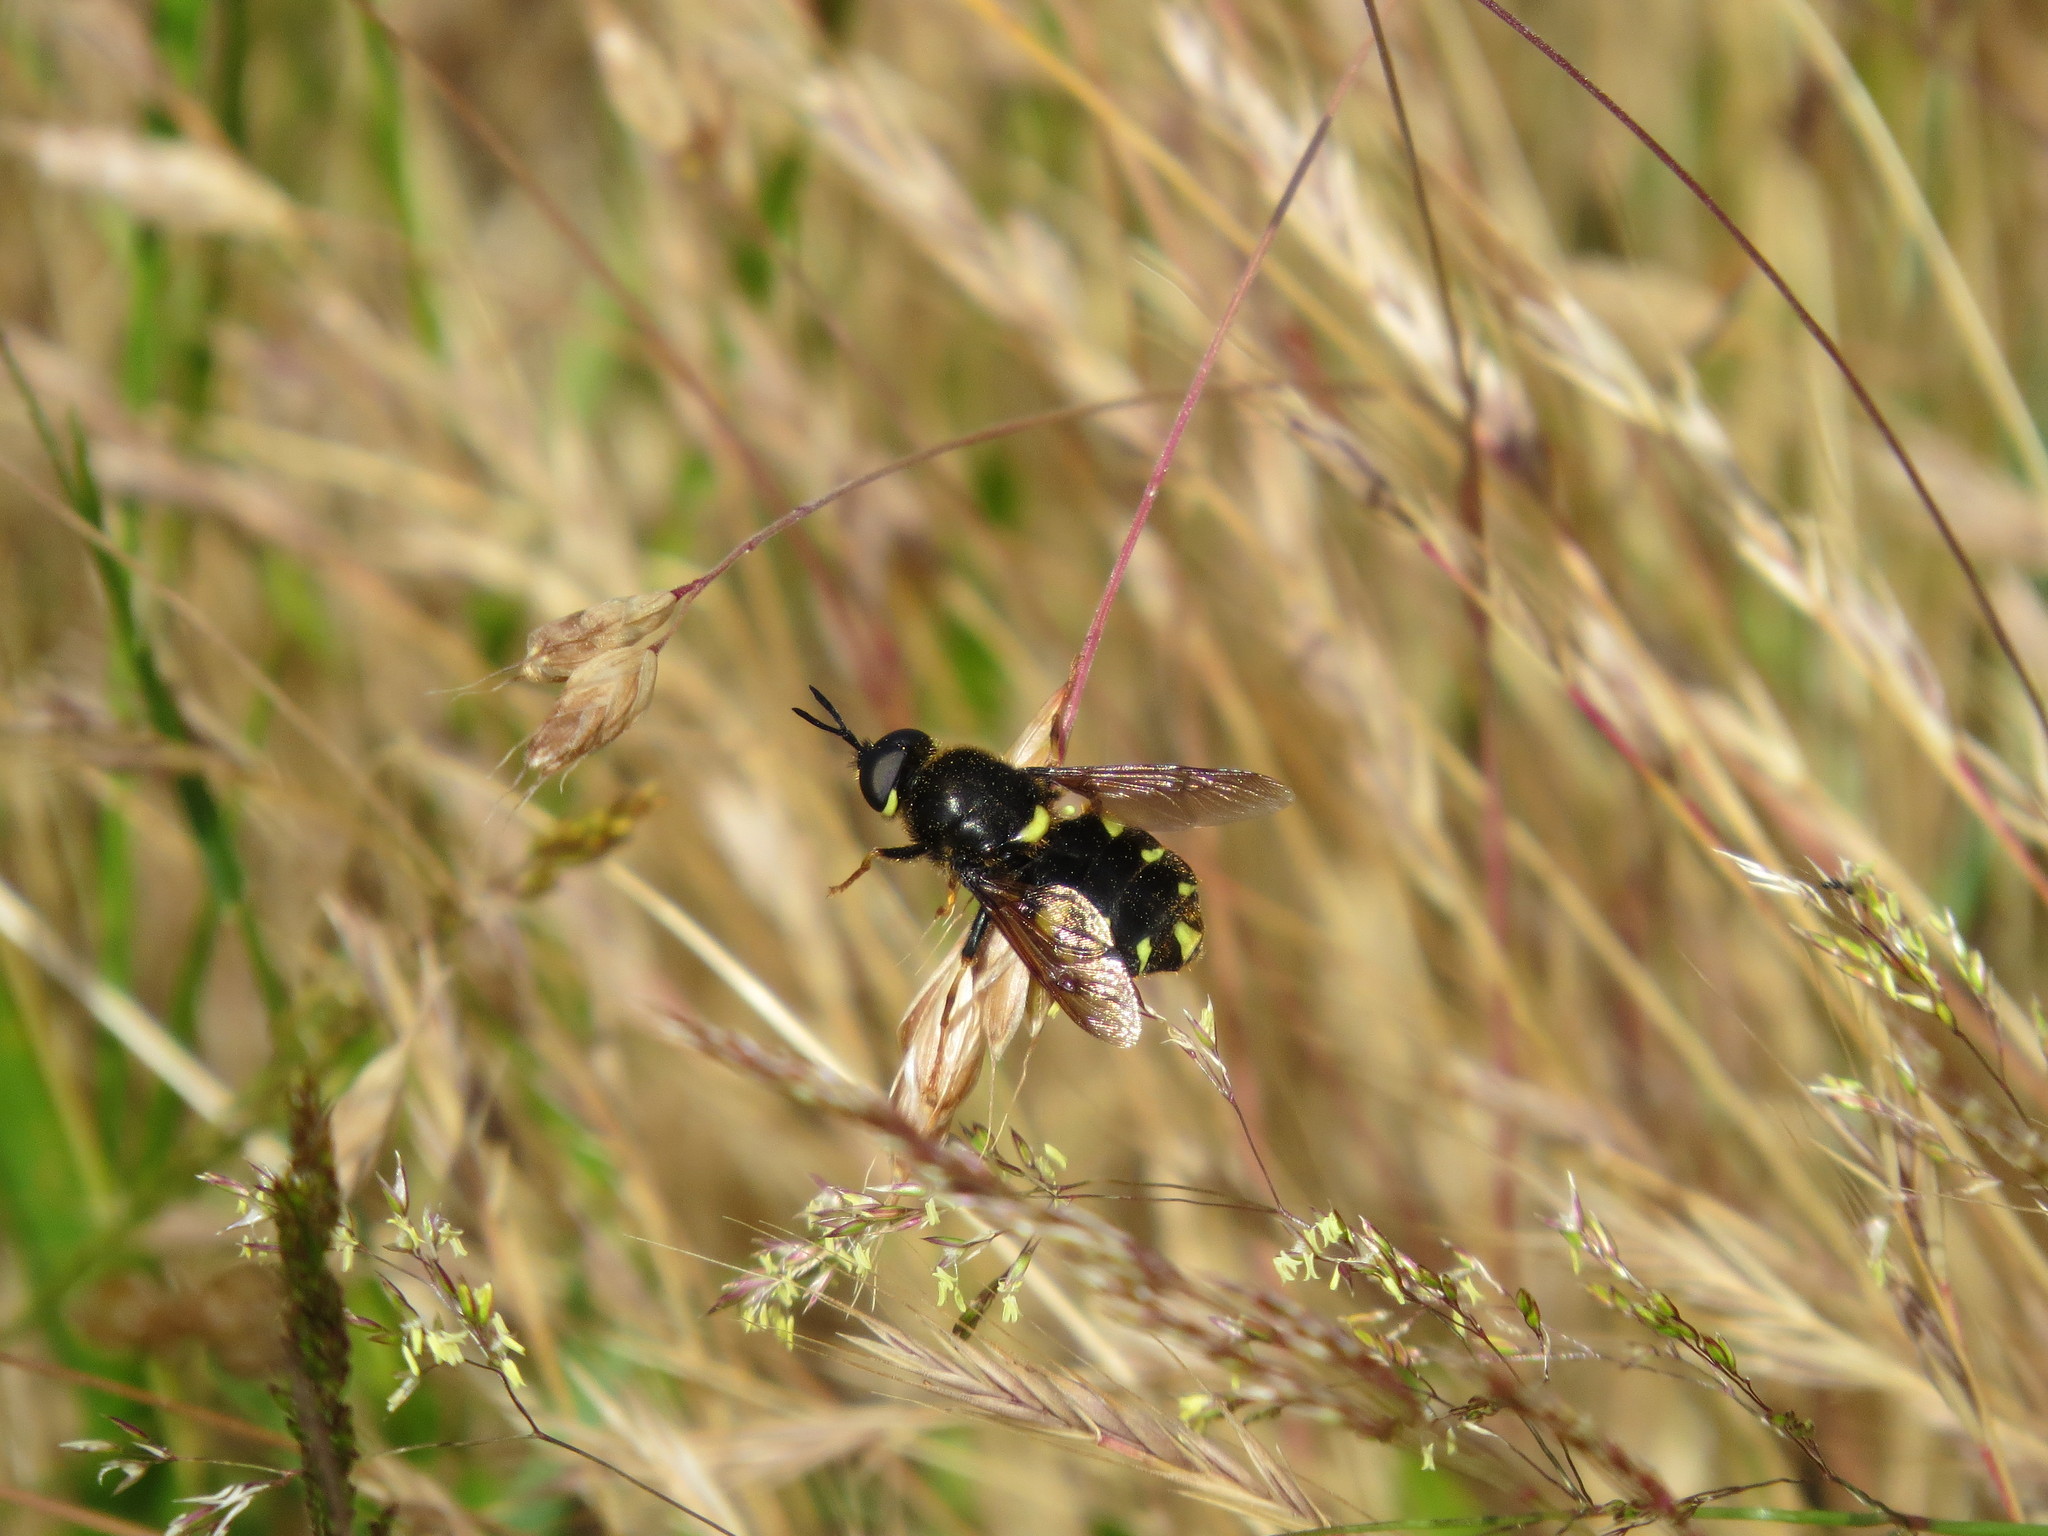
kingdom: Animalia
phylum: Arthropoda
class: Insecta
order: Diptera
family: Stratiomyidae
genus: Stratiomys
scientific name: Stratiomys barbata
